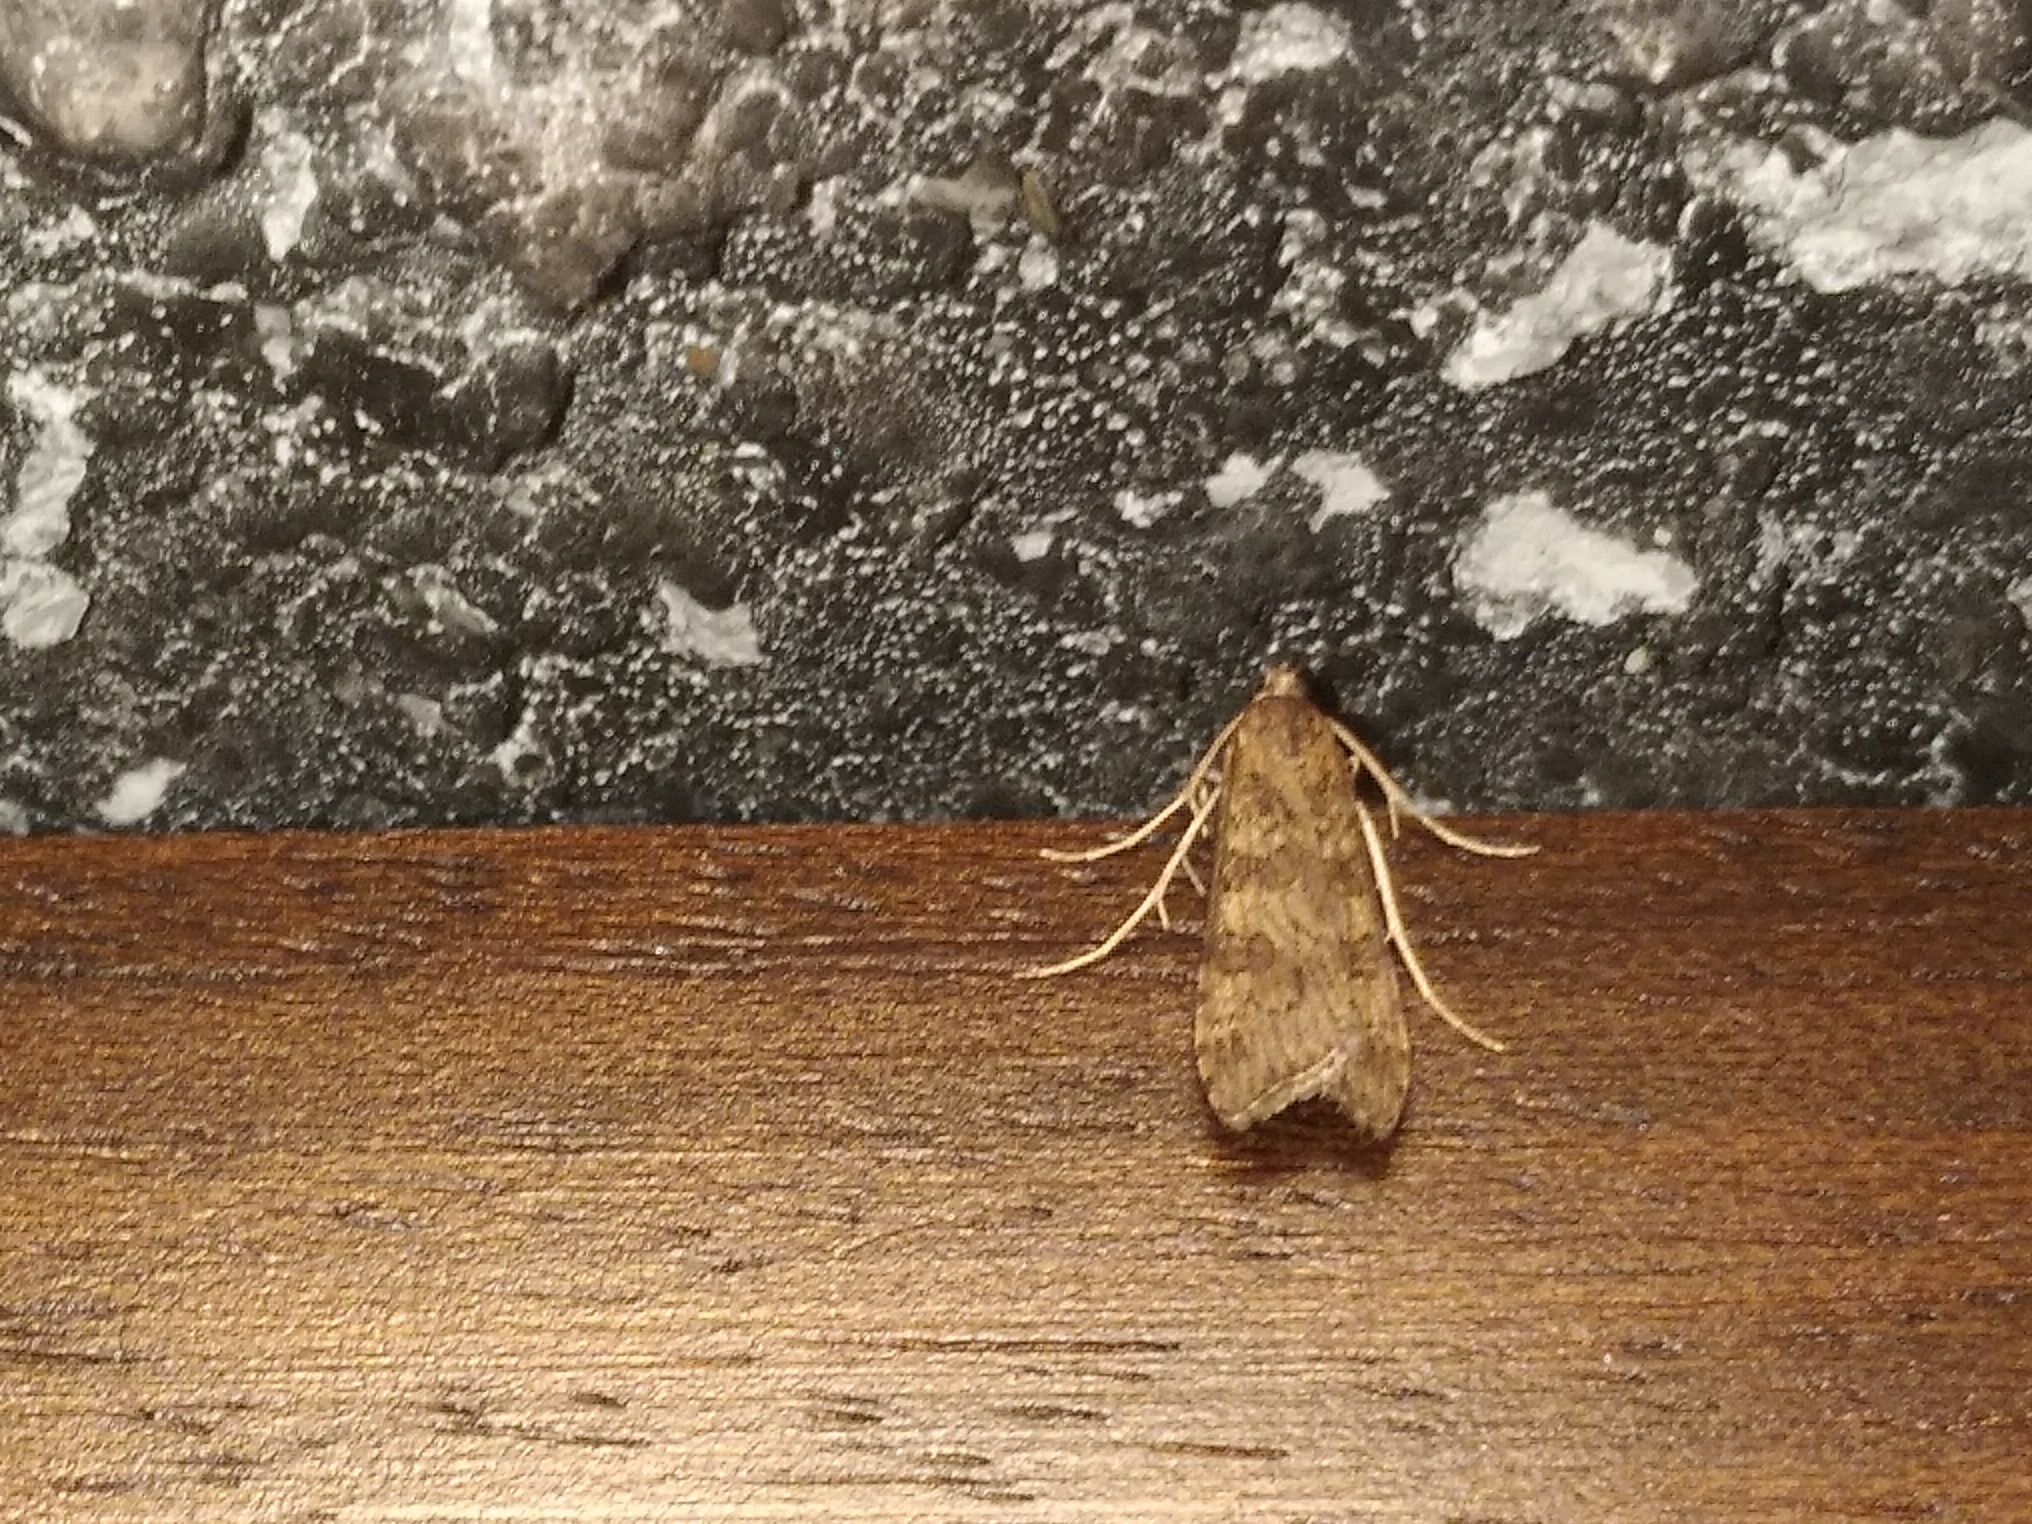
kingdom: Animalia
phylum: Arthropoda
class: Insecta
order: Lepidoptera
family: Crambidae
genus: Nomophila
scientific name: Nomophila noctuella
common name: Rush veneer
